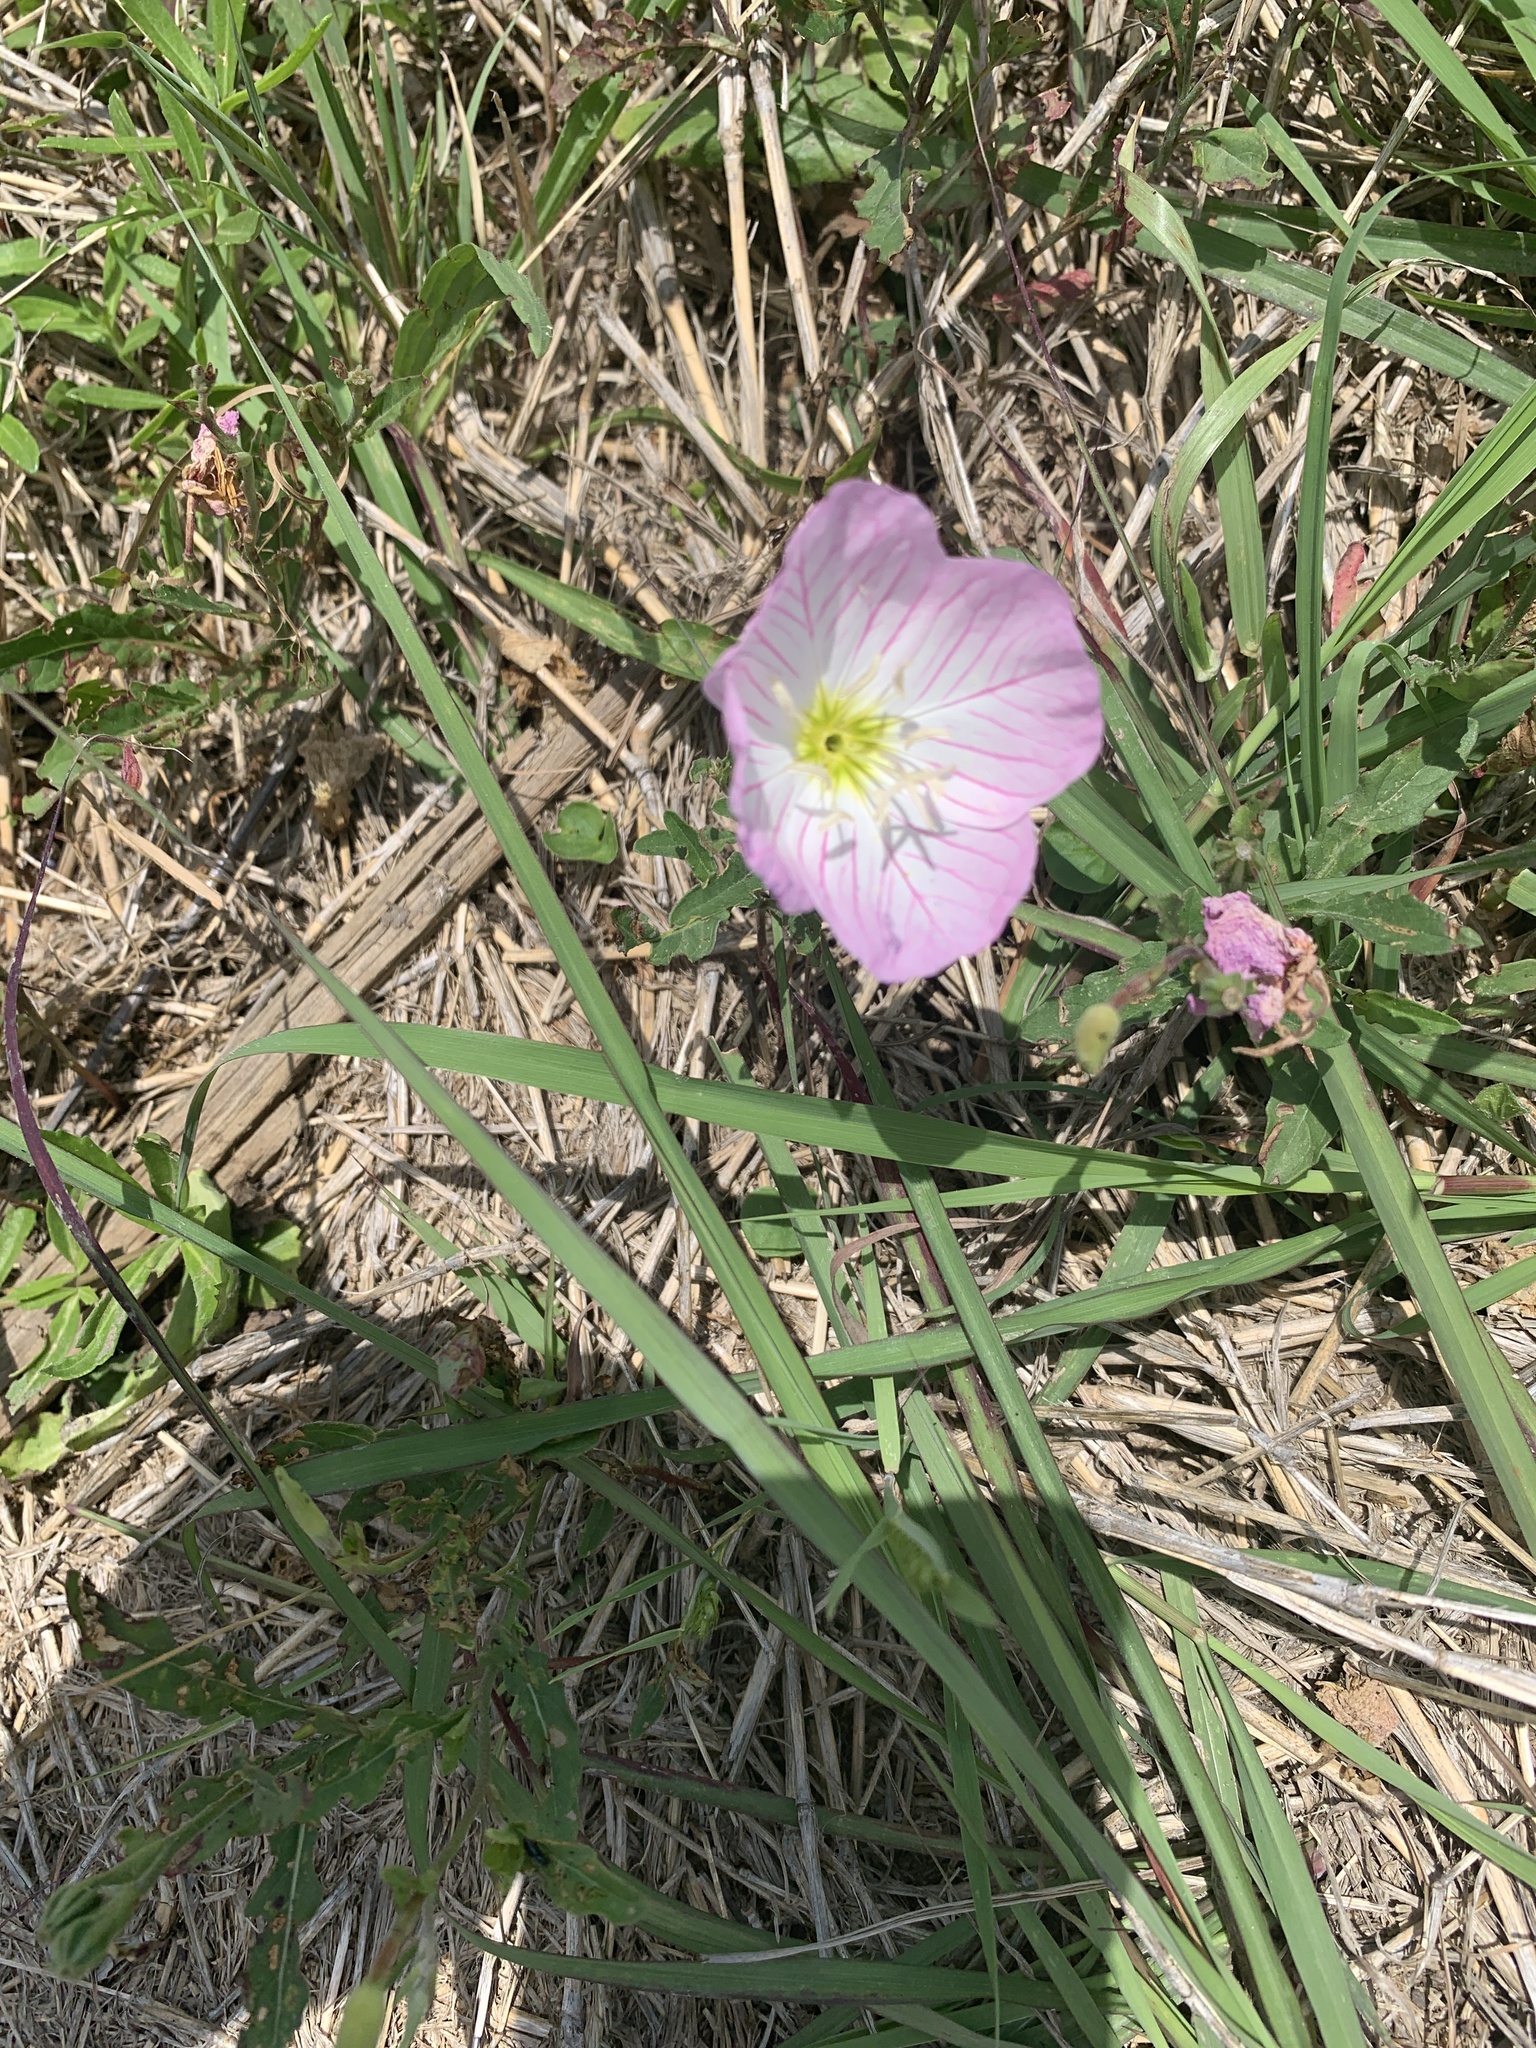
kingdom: Plantae
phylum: Tracheophyta
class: Magnoliopsida
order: Myrtales
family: Onagraceae
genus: Oenothera
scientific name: Oenothera speciosa
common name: White evening-primrose
